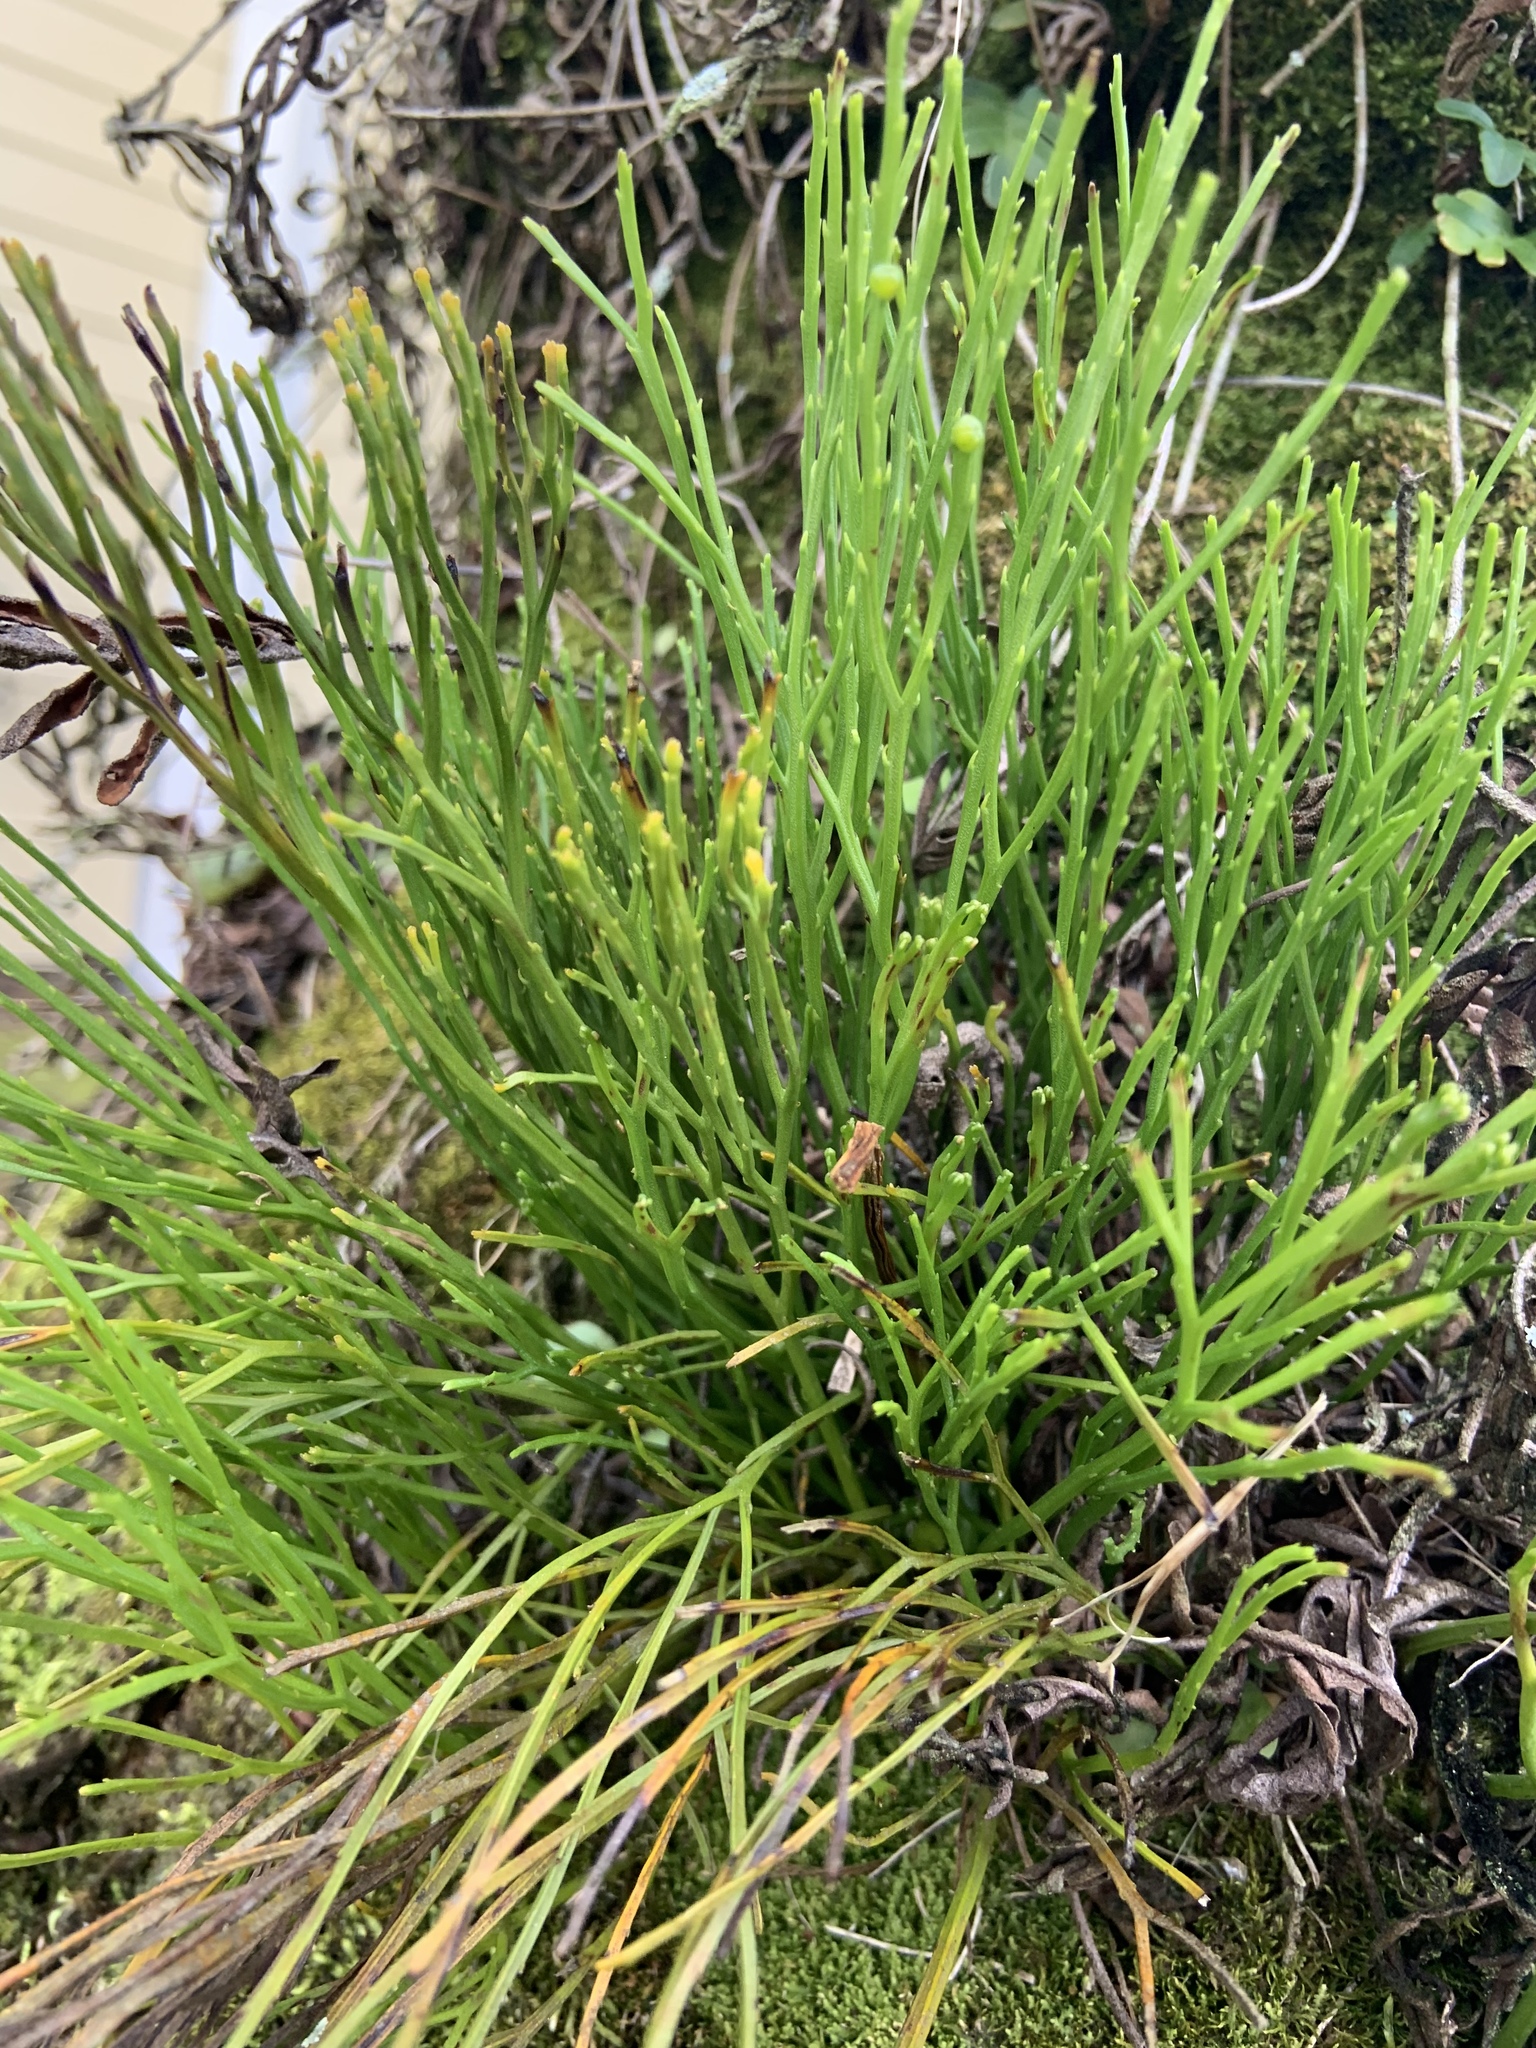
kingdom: Plantae
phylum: Tracheophyta
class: Polypodiopsida
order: Psilotales
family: Psilotaceae
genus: Psilotum
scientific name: Psilotum nudum
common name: Skeleton fork fern
